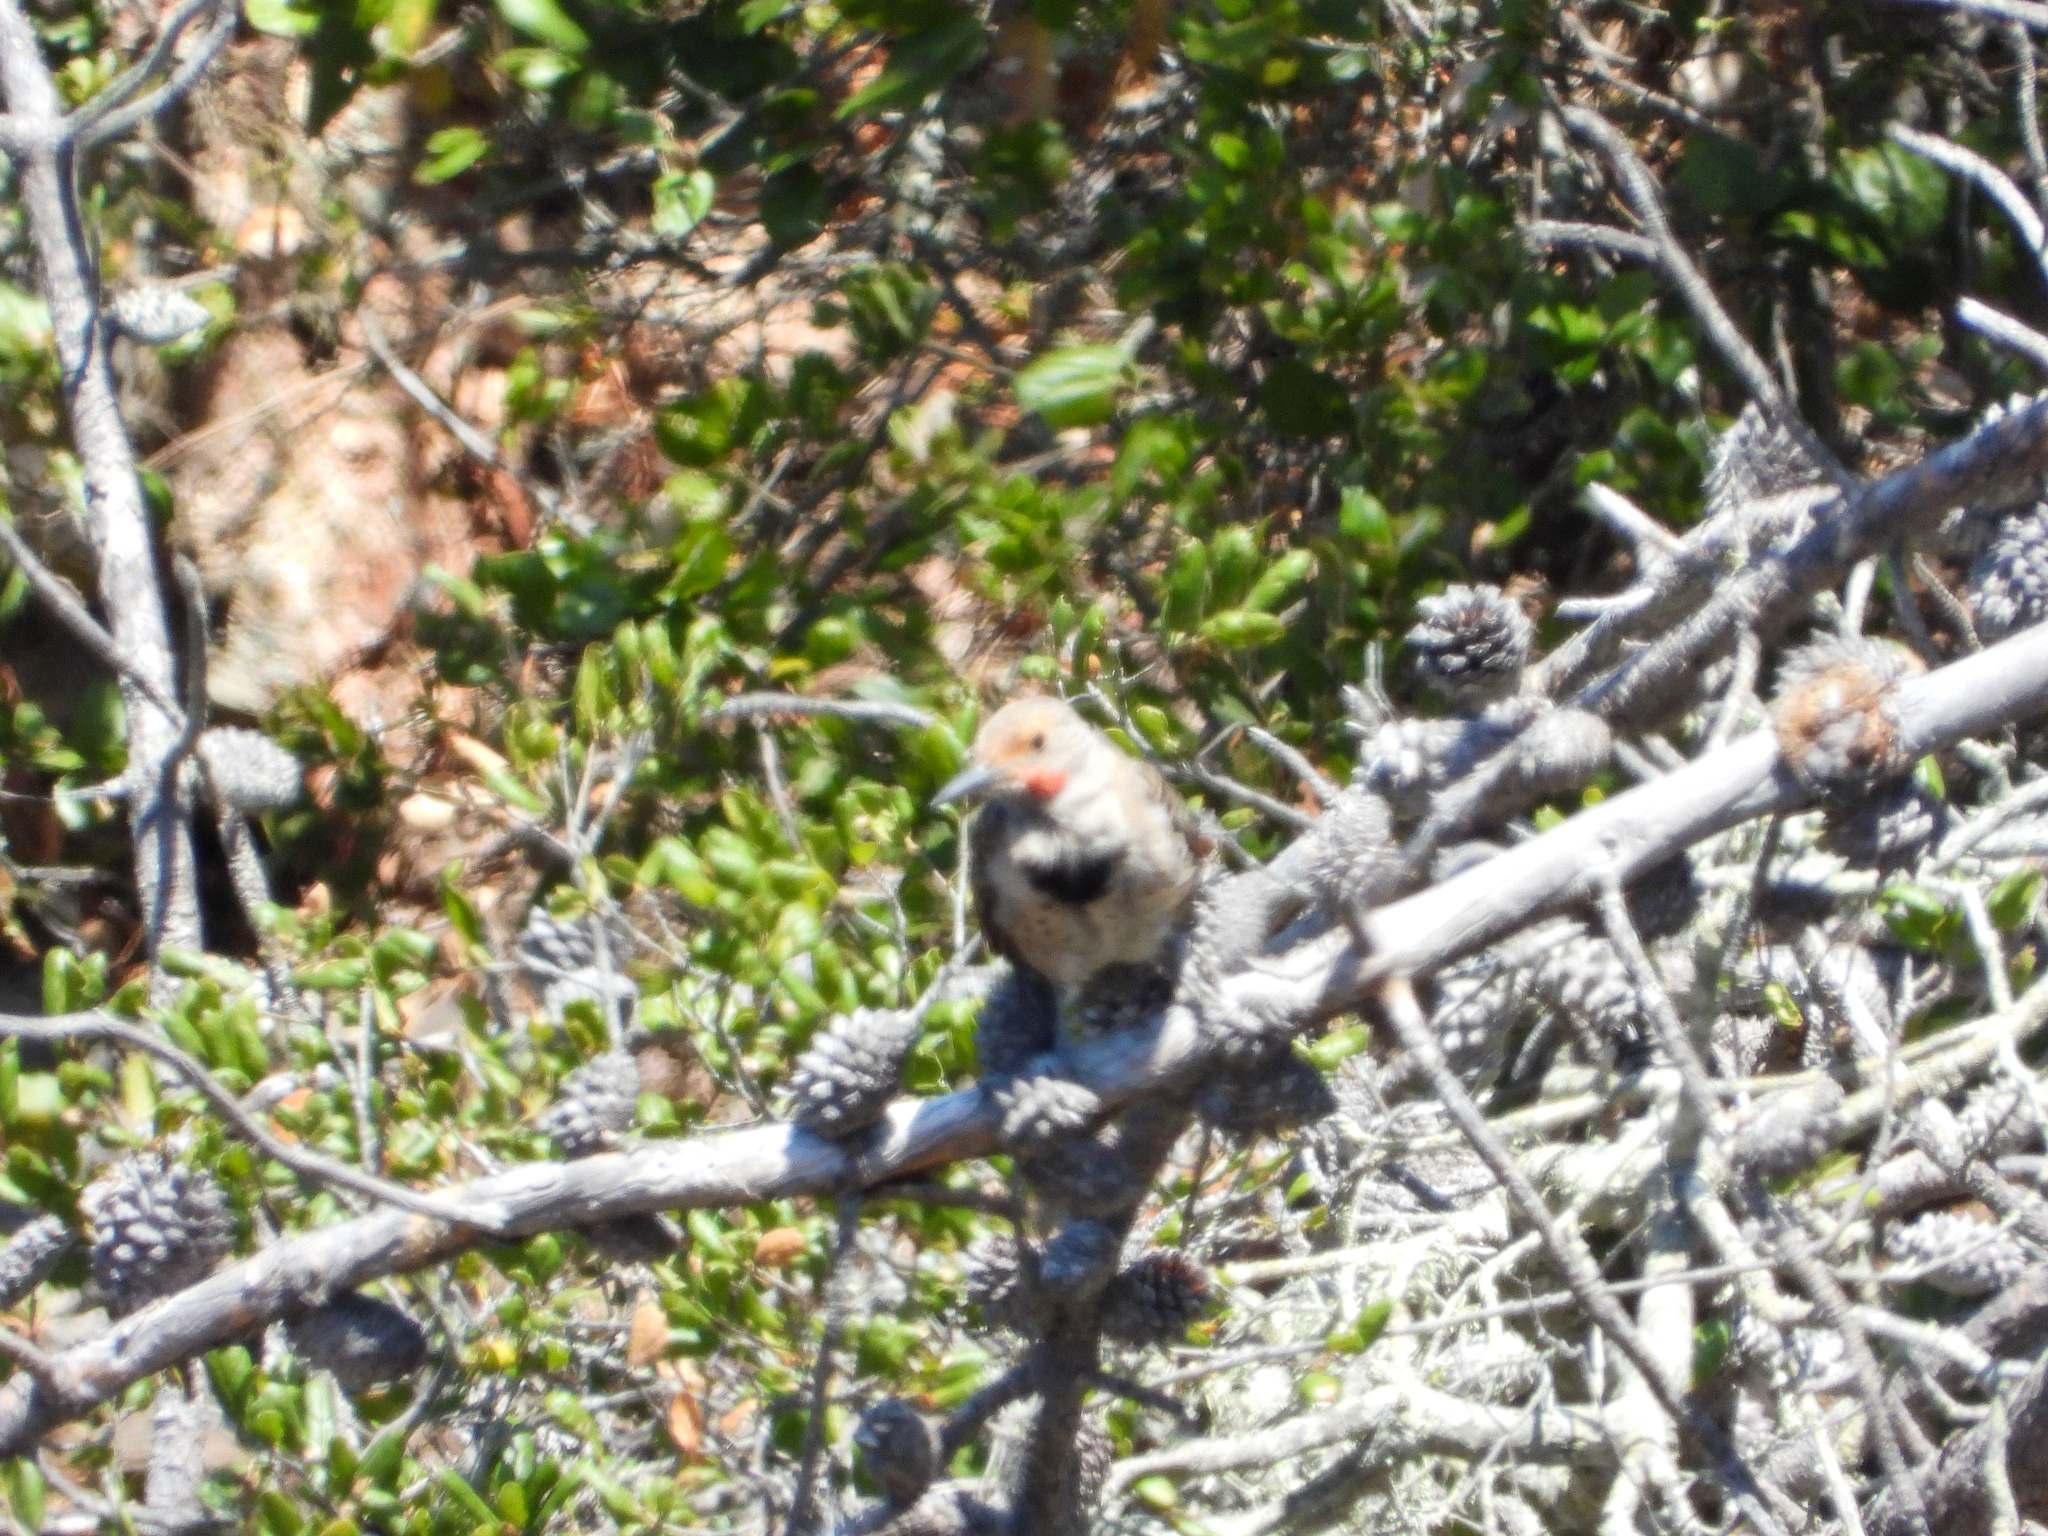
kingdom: Animalia
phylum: Chordata
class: Aves
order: Piciformes
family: Picidae
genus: Colaptes
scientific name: Colaptes auratus
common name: Northern flicker
